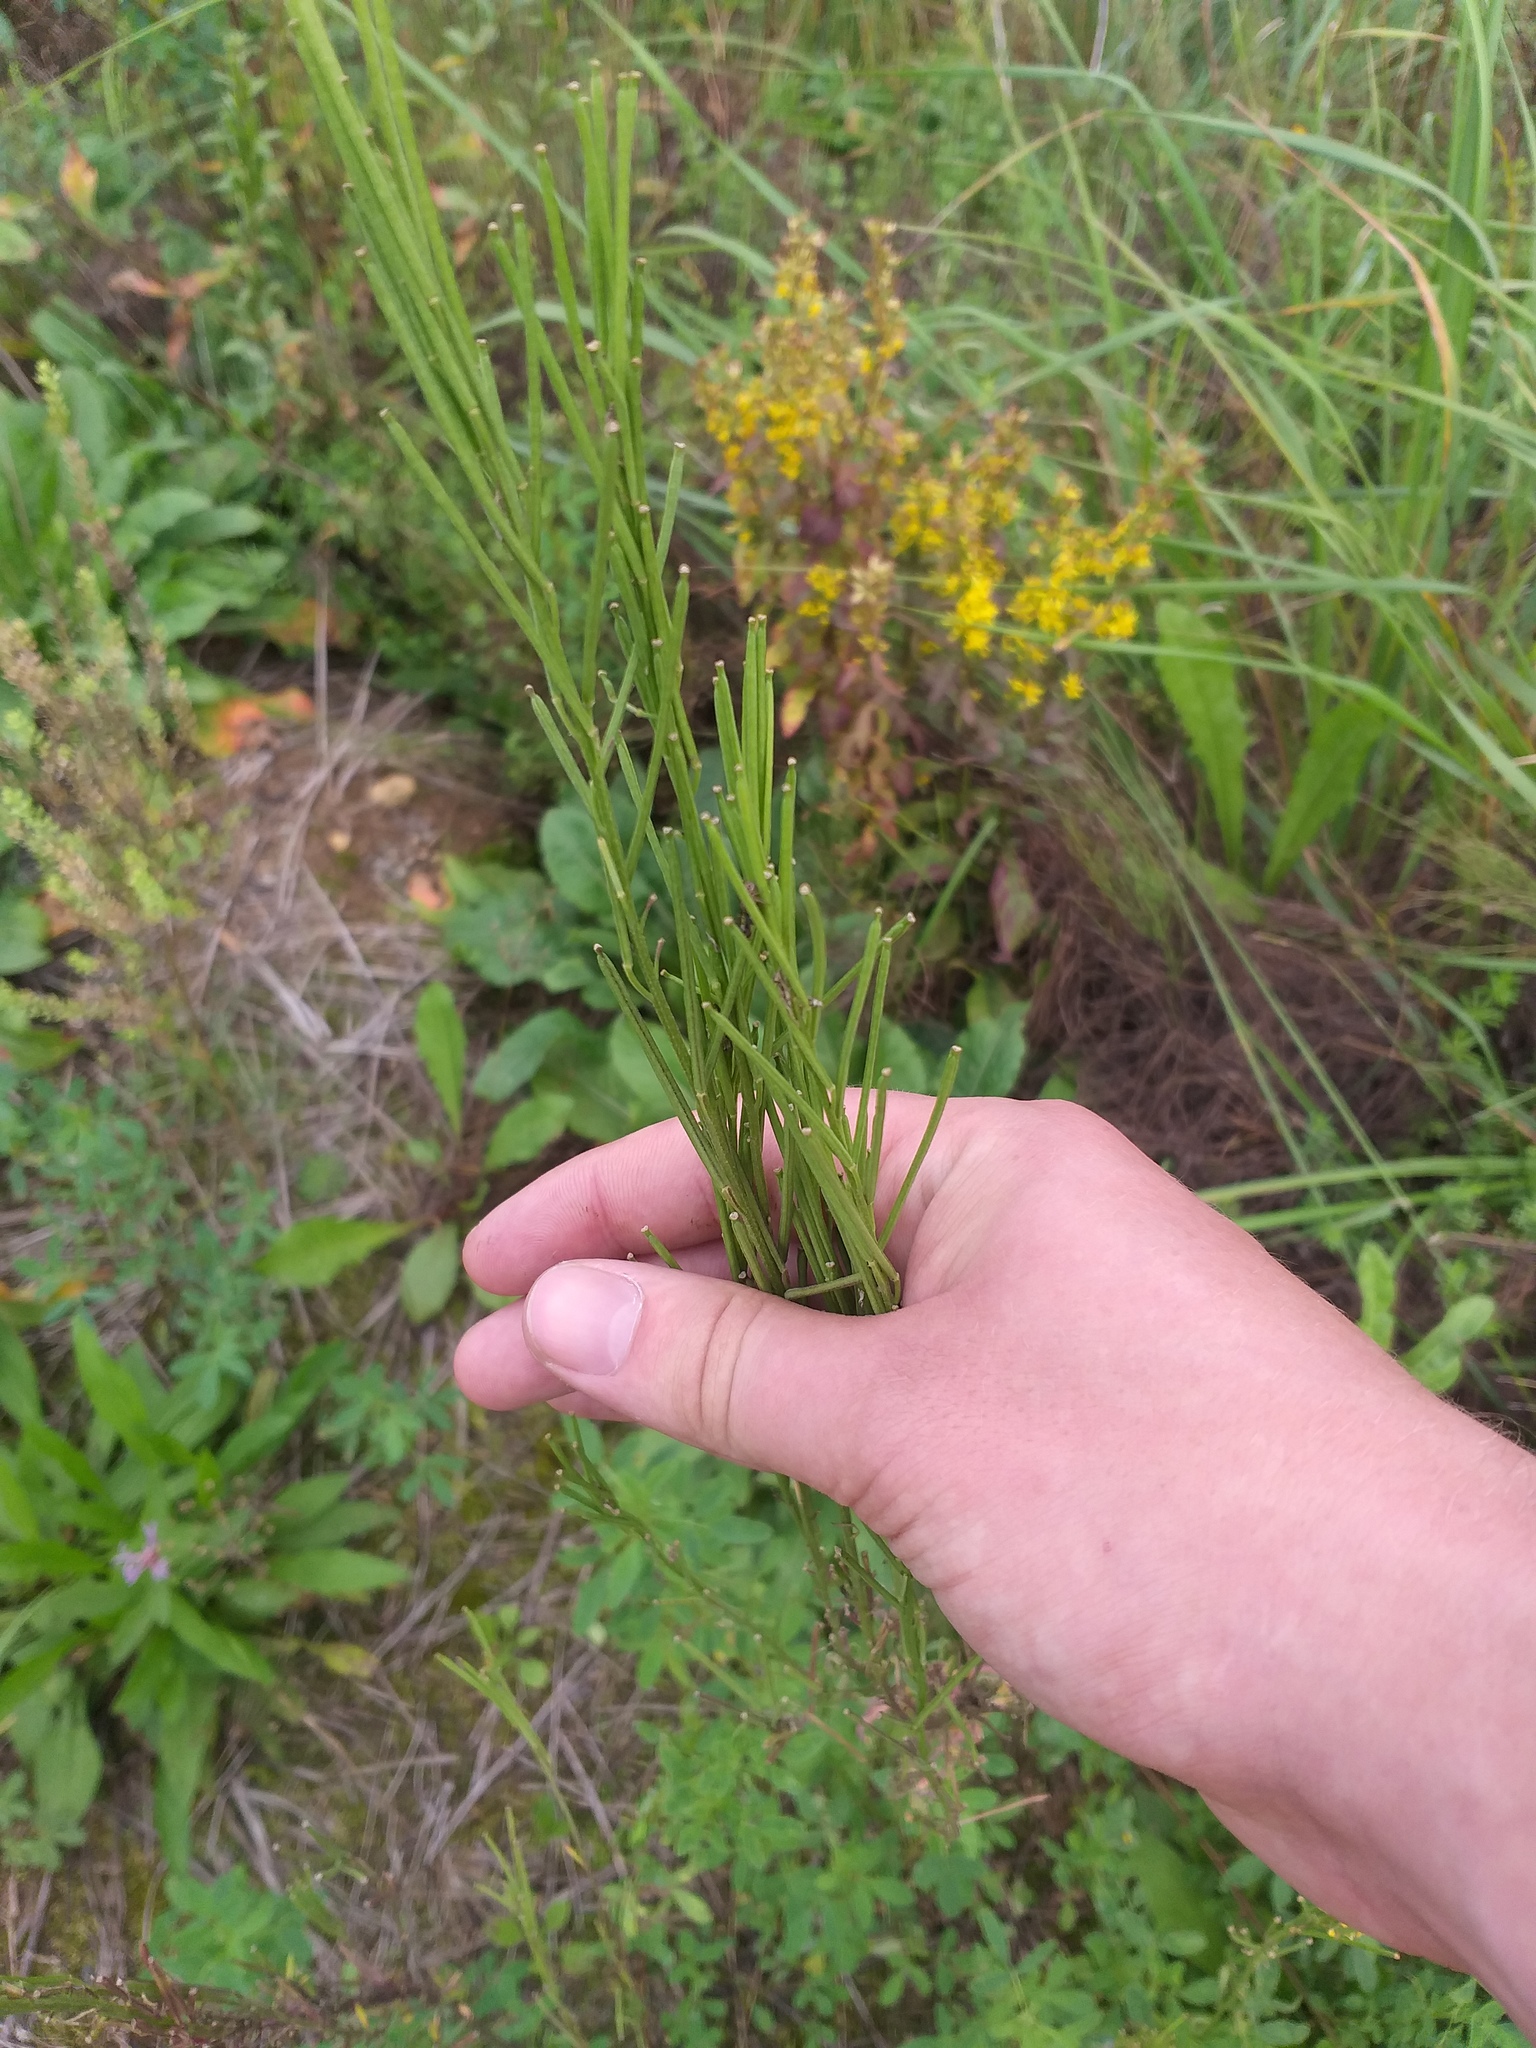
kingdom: Plantae
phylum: Tracheophyta
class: Magnoliopsida
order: Brassicales
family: Brassicaceae
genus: Erysimum
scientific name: Erysimum hieraciifolium
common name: European wallflower
